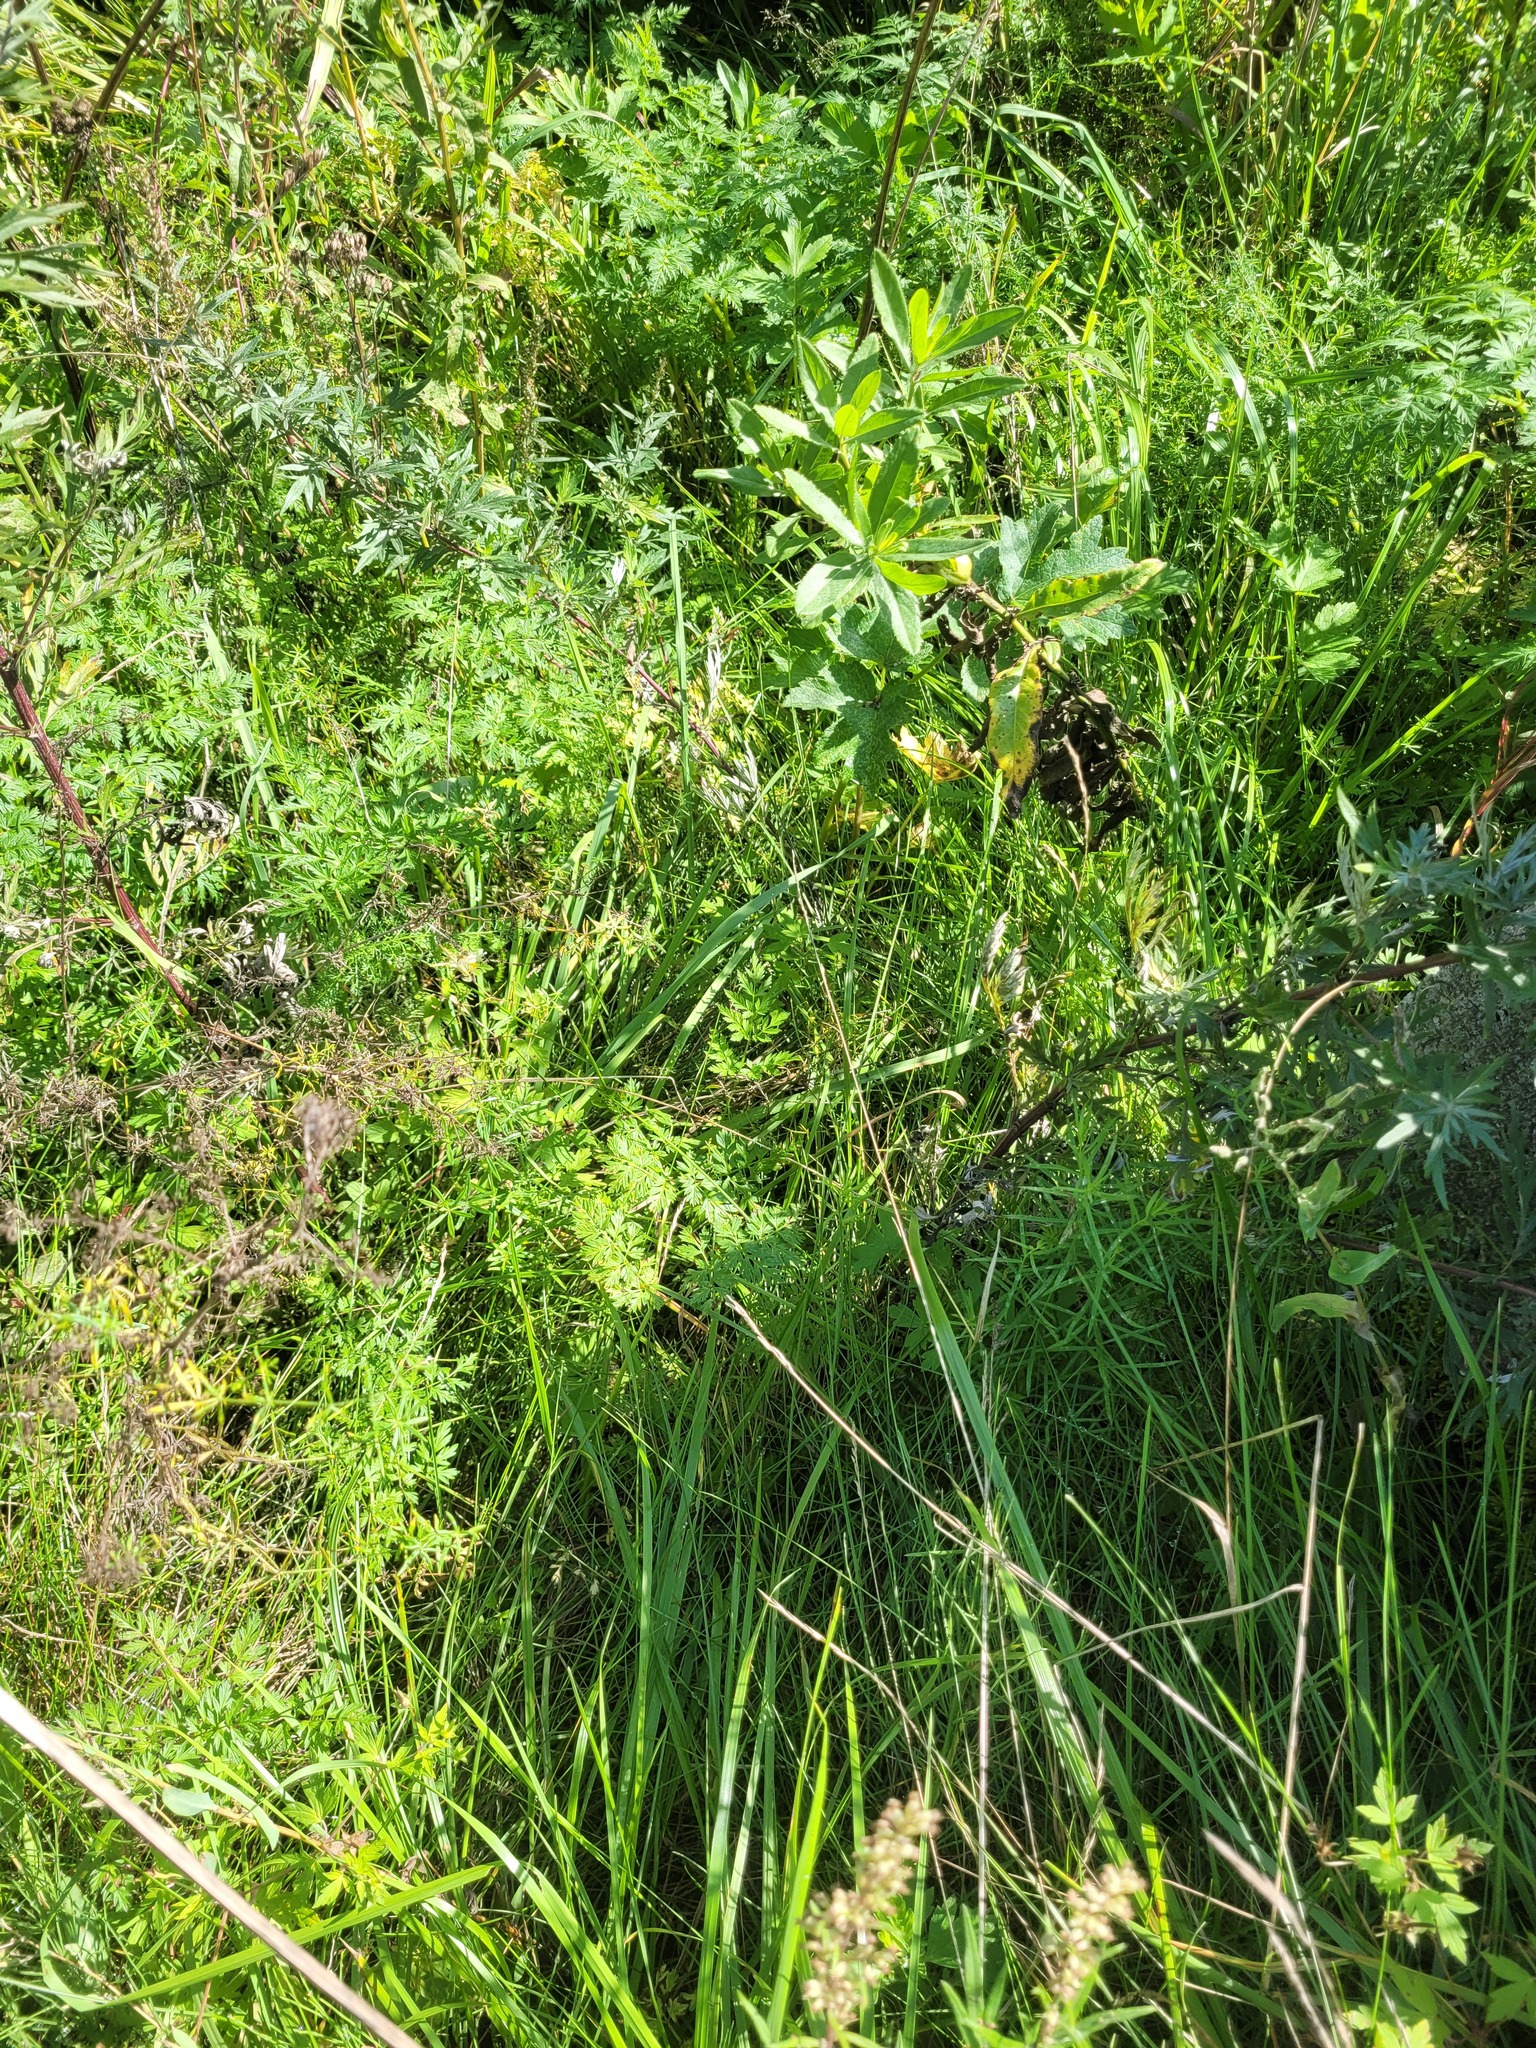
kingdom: Plantae
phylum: Tracheophyta
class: Magnoliopsida
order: Apiales
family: Apiaceae
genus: Anthriscus
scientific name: Anthriscus sylvestris
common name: Cow parsley
